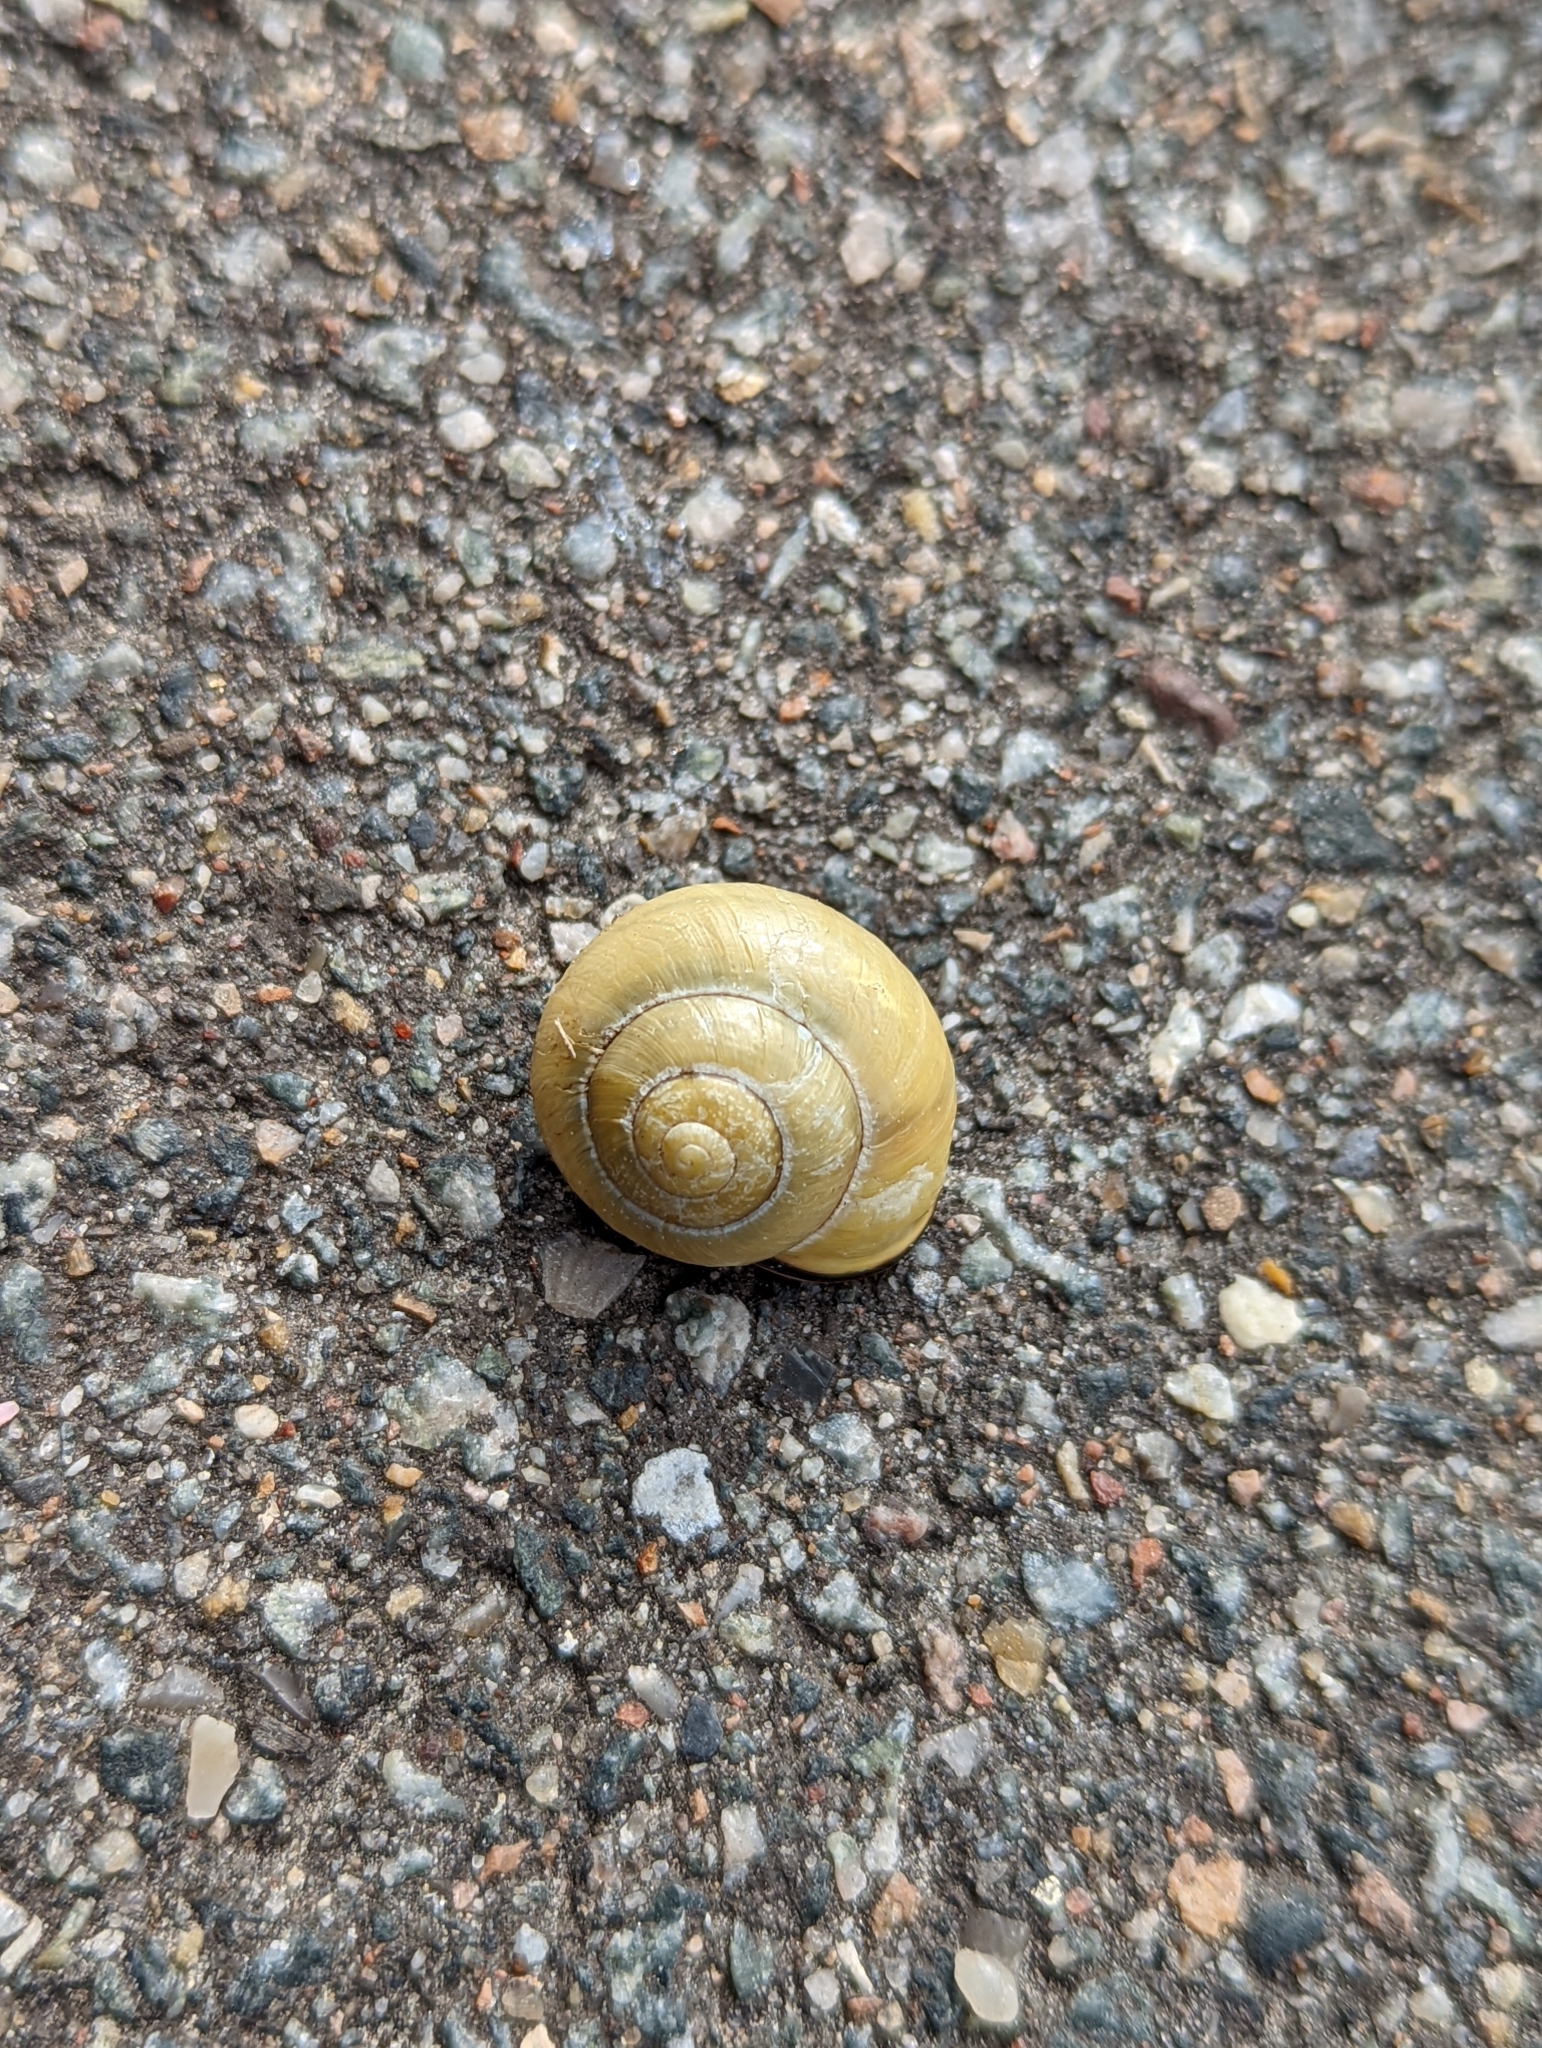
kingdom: Animalia
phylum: Mollusca
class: Gastropoda
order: Stylommatophora
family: Helicidae
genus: Cepaea
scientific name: Cepaea nemoralis
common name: Grovesnail
